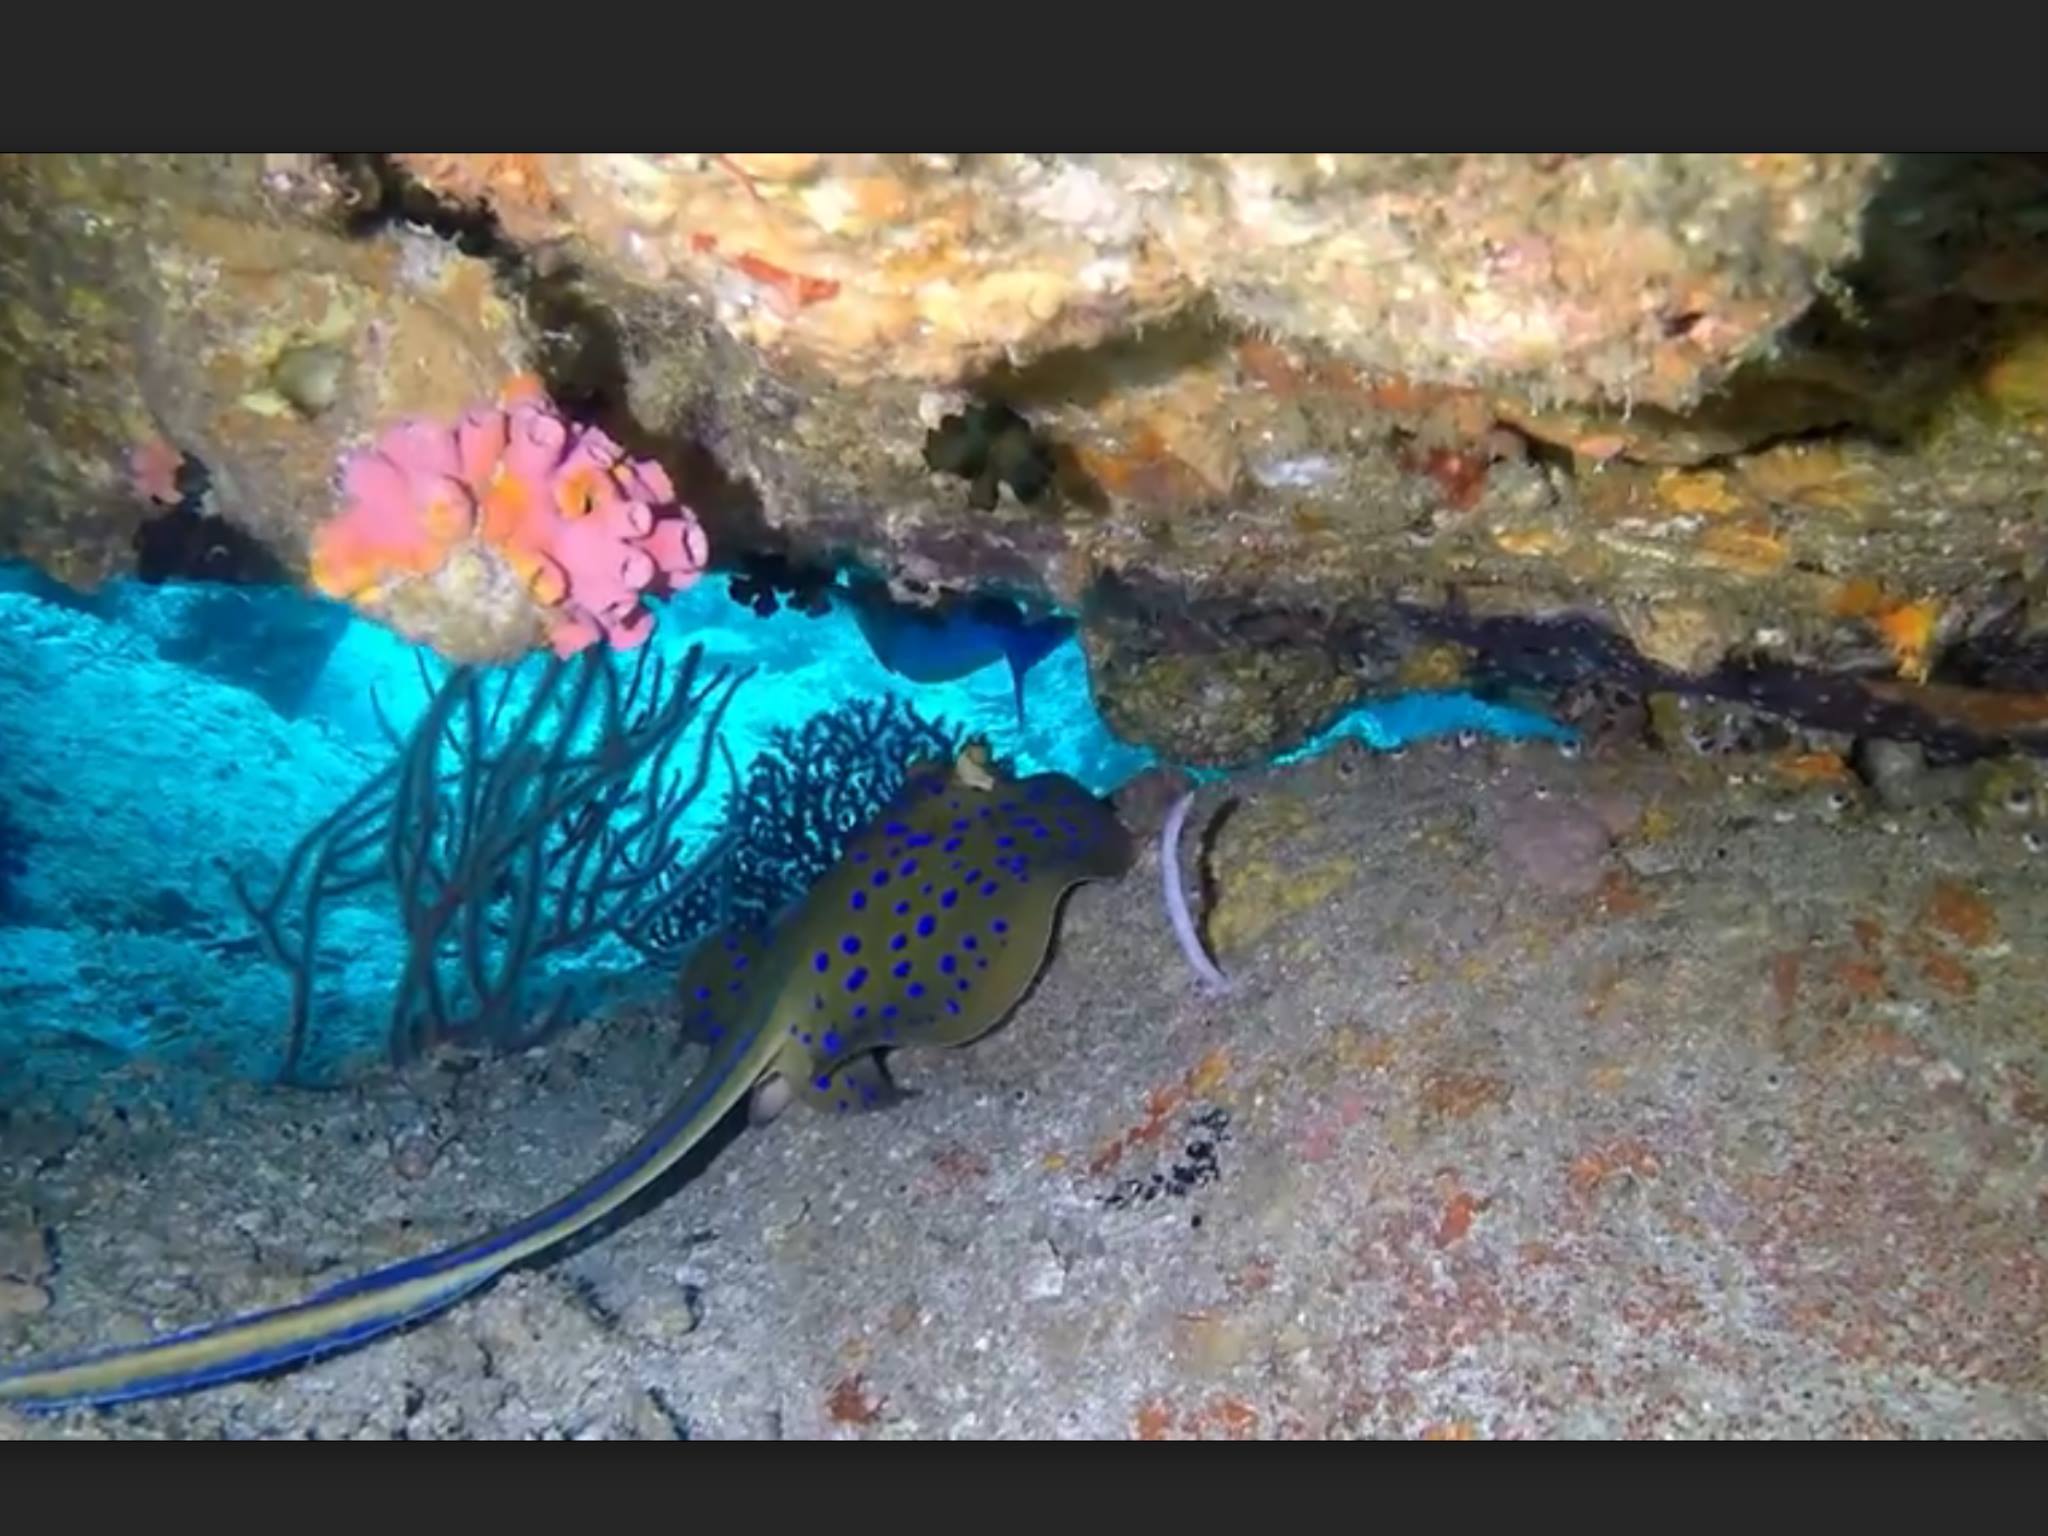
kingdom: Animalia
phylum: Chordata
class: Elasmobranchii
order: Myliobatiformes
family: Dasyatidae
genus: Taeniura
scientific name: Taeniura lymma
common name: Bluespotted ribbontail ray
